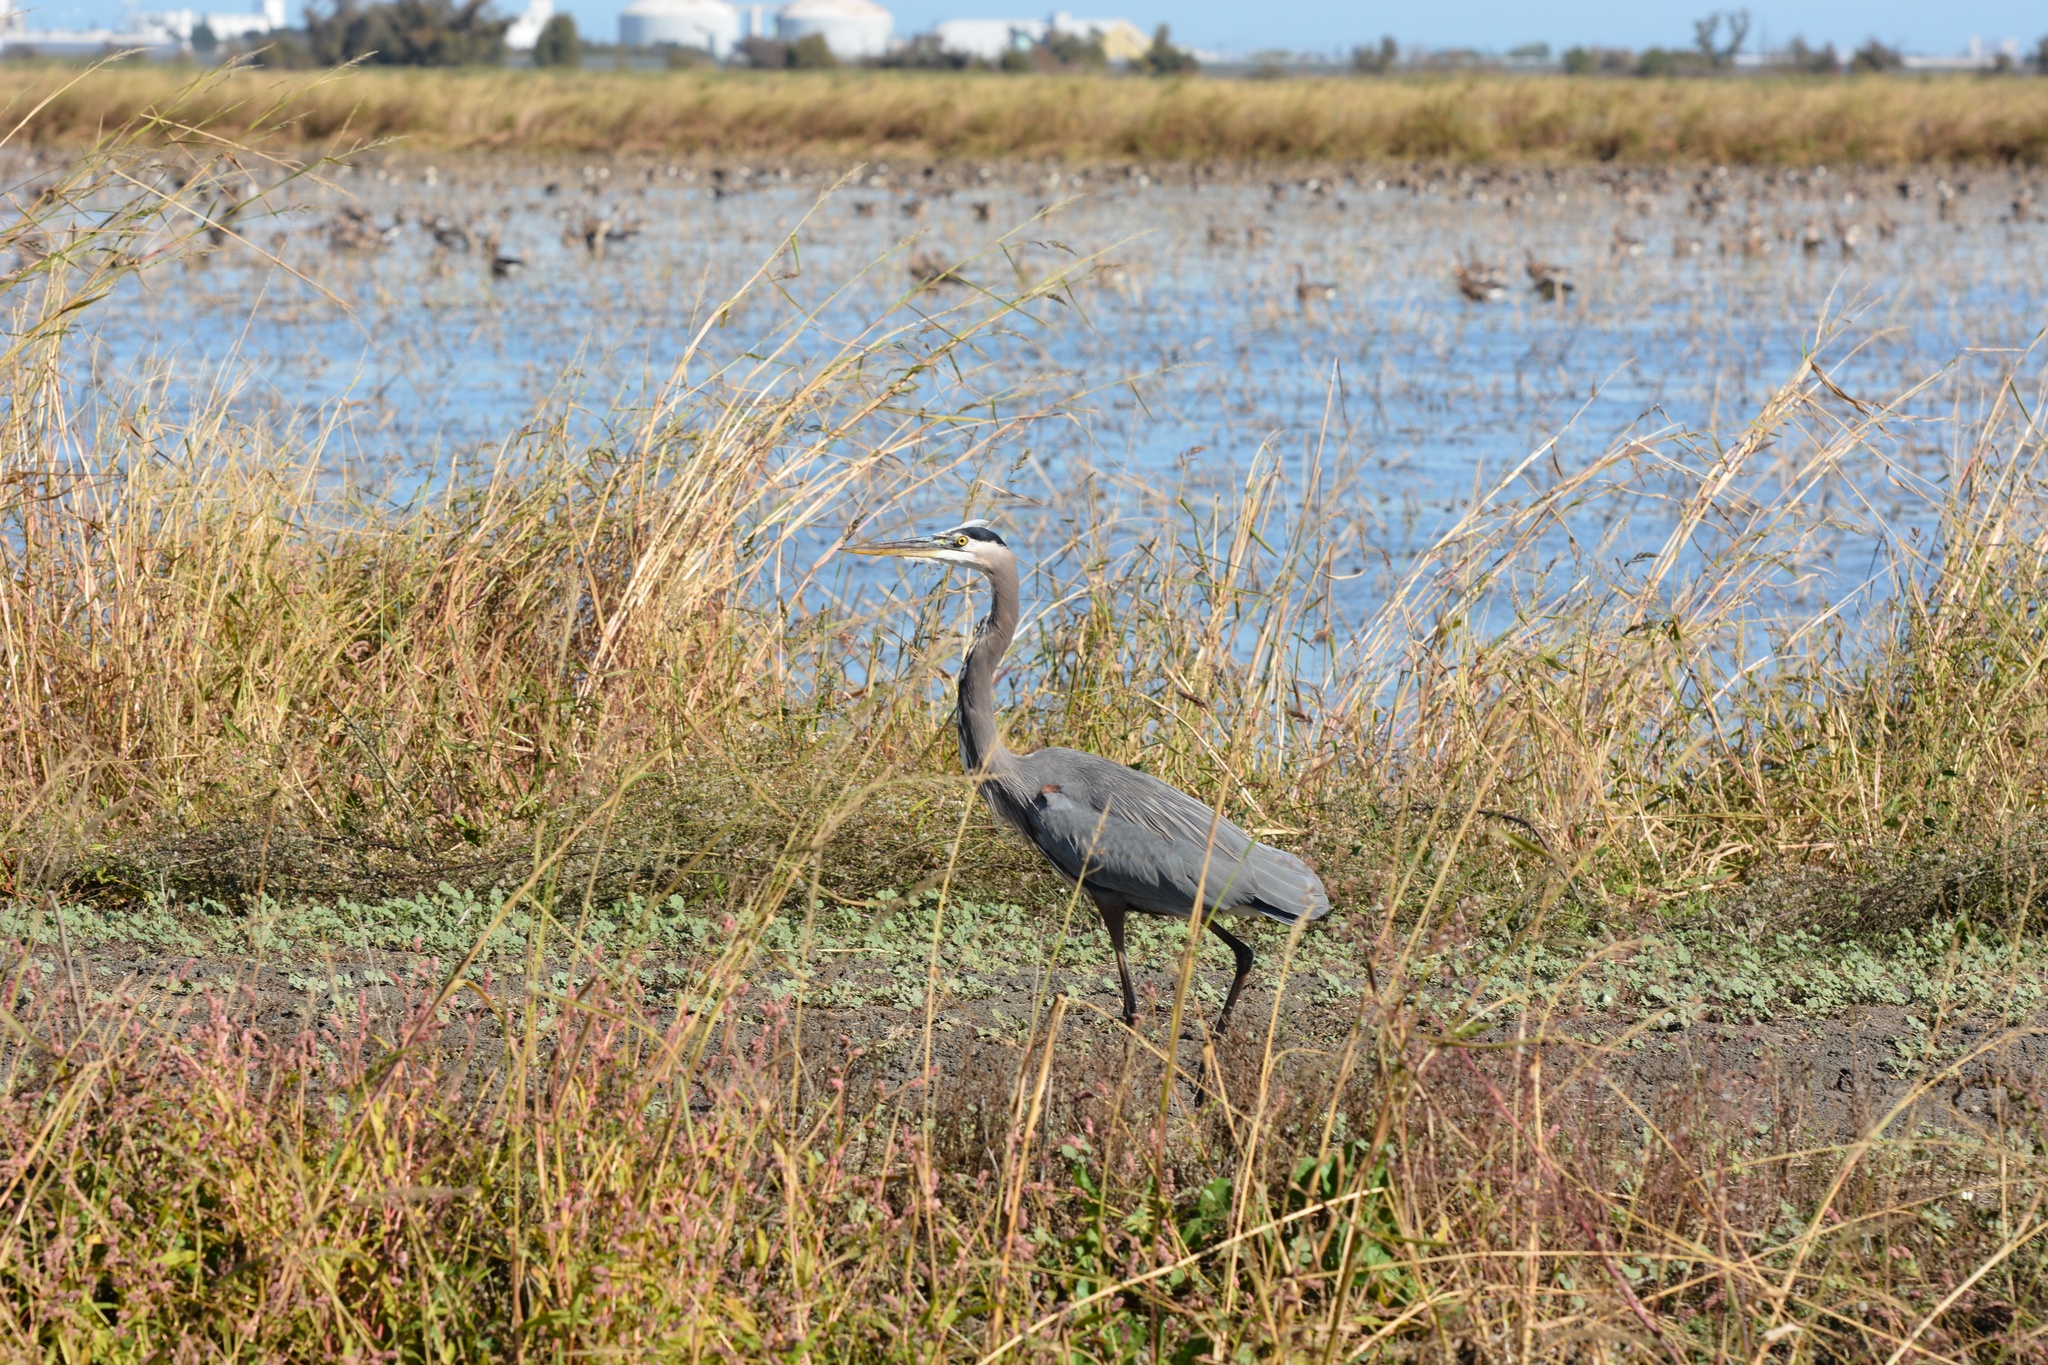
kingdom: Animalia
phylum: Chordata
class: Aves
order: Pelecaniformes
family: Ardeidae
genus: Ardea
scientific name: Ardea herodias
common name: Great blue heron
